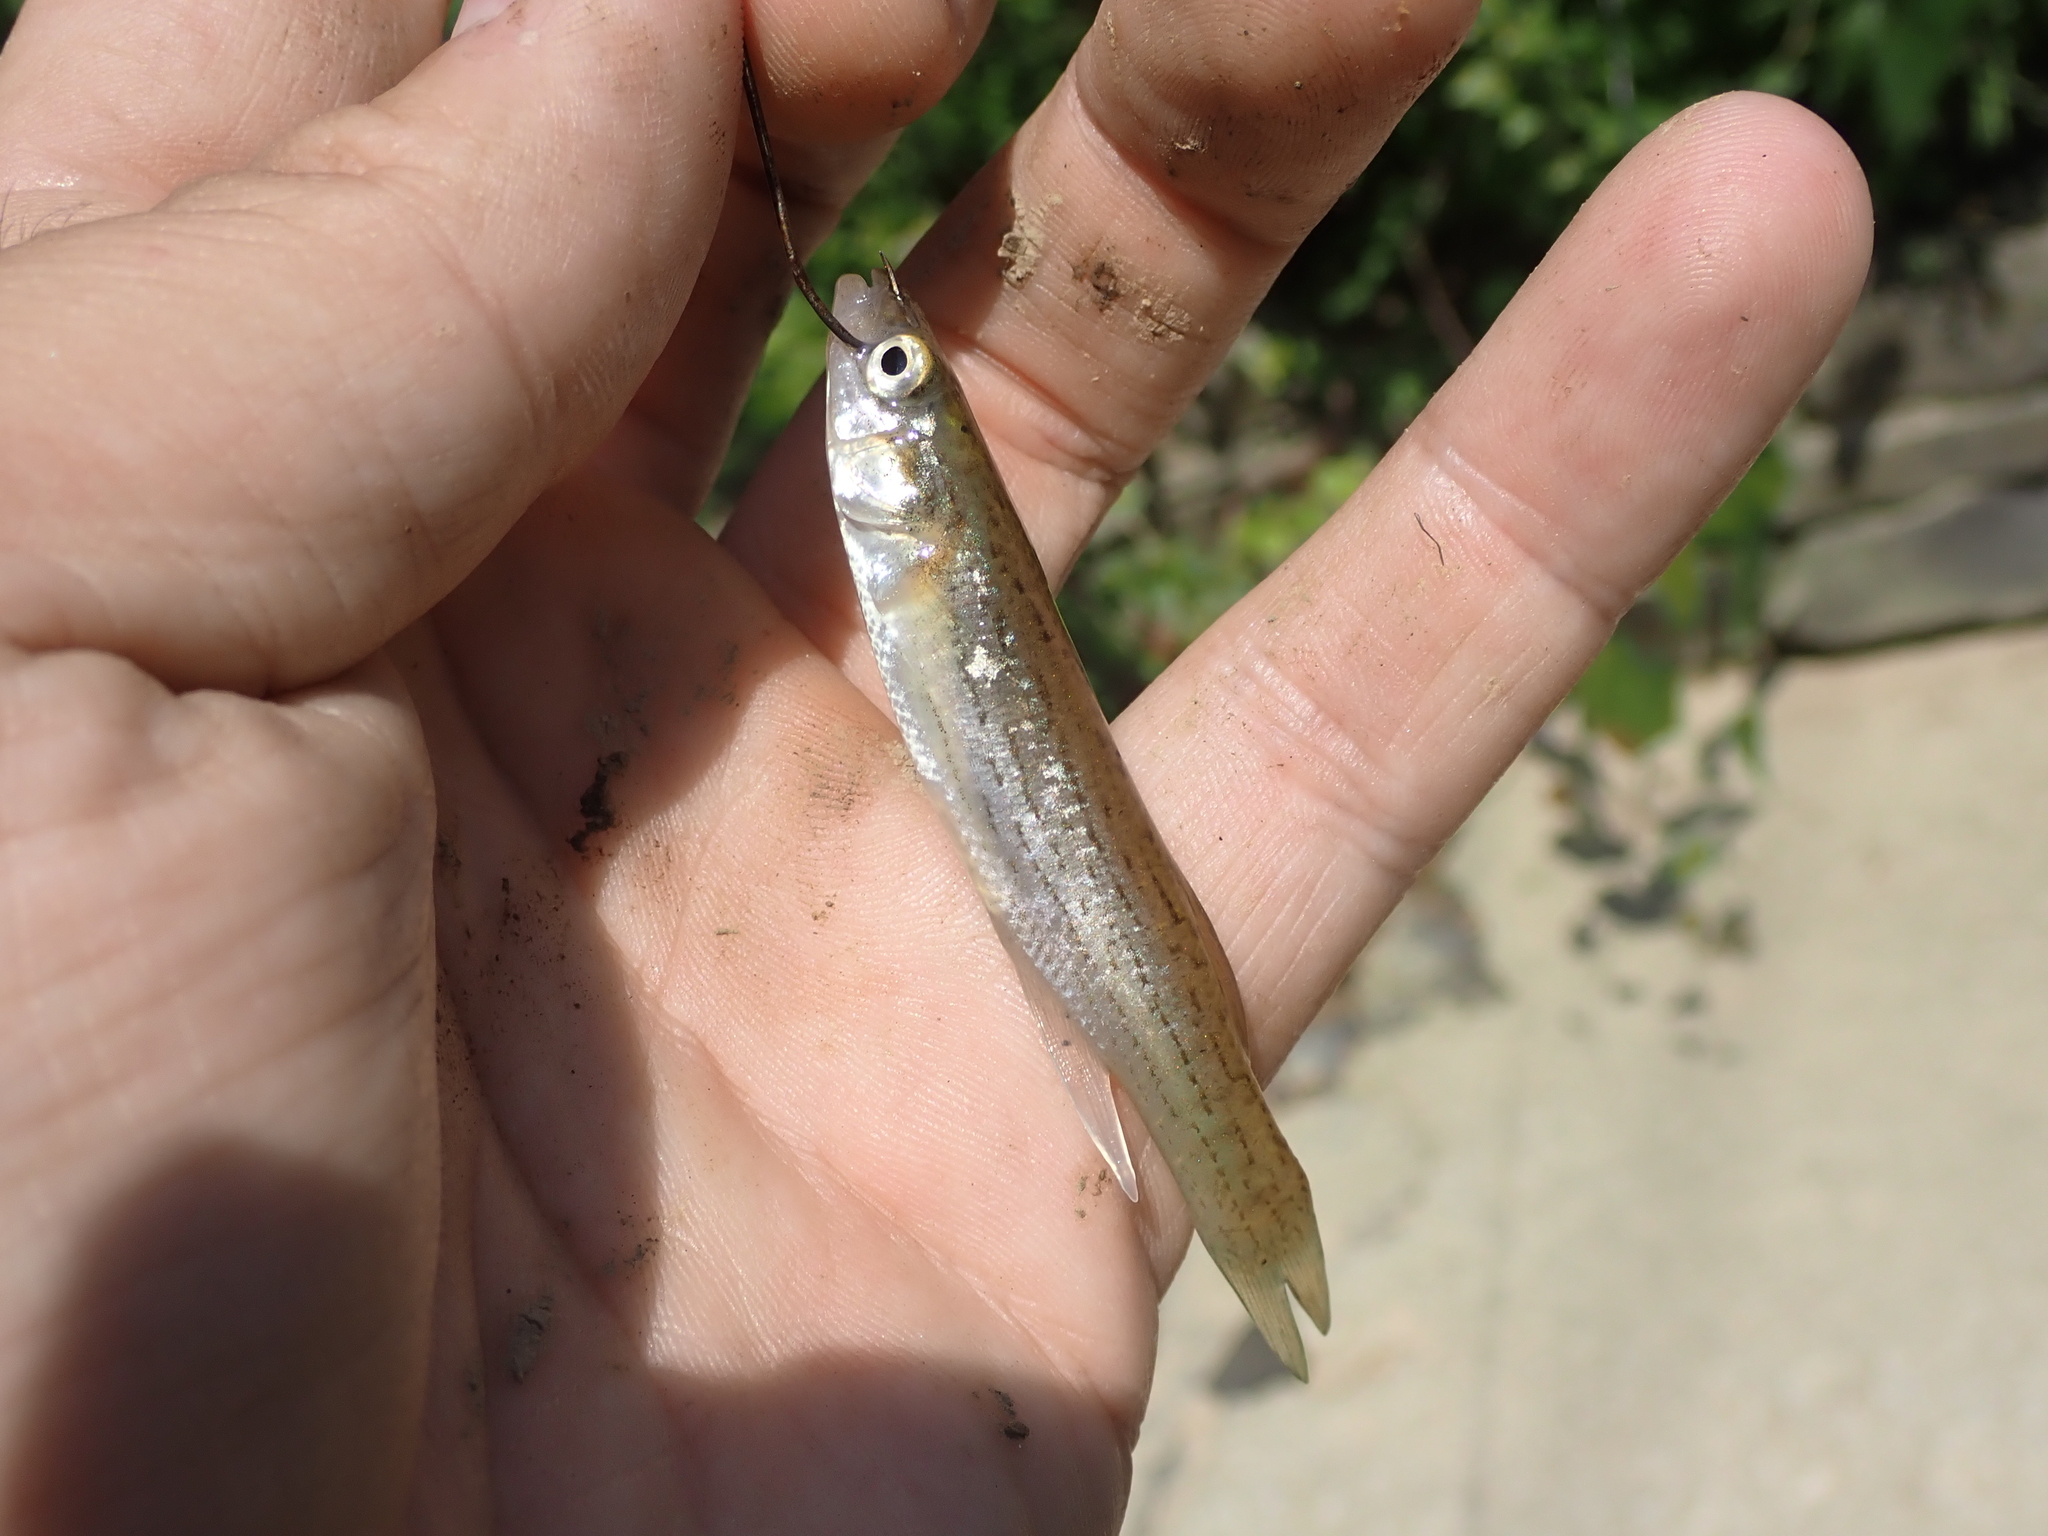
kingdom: Animalia
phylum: Chordata
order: Cyprinodontiformes
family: Fundulidae
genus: Fundulus
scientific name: Fundulus catenatus
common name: Northern studfish
